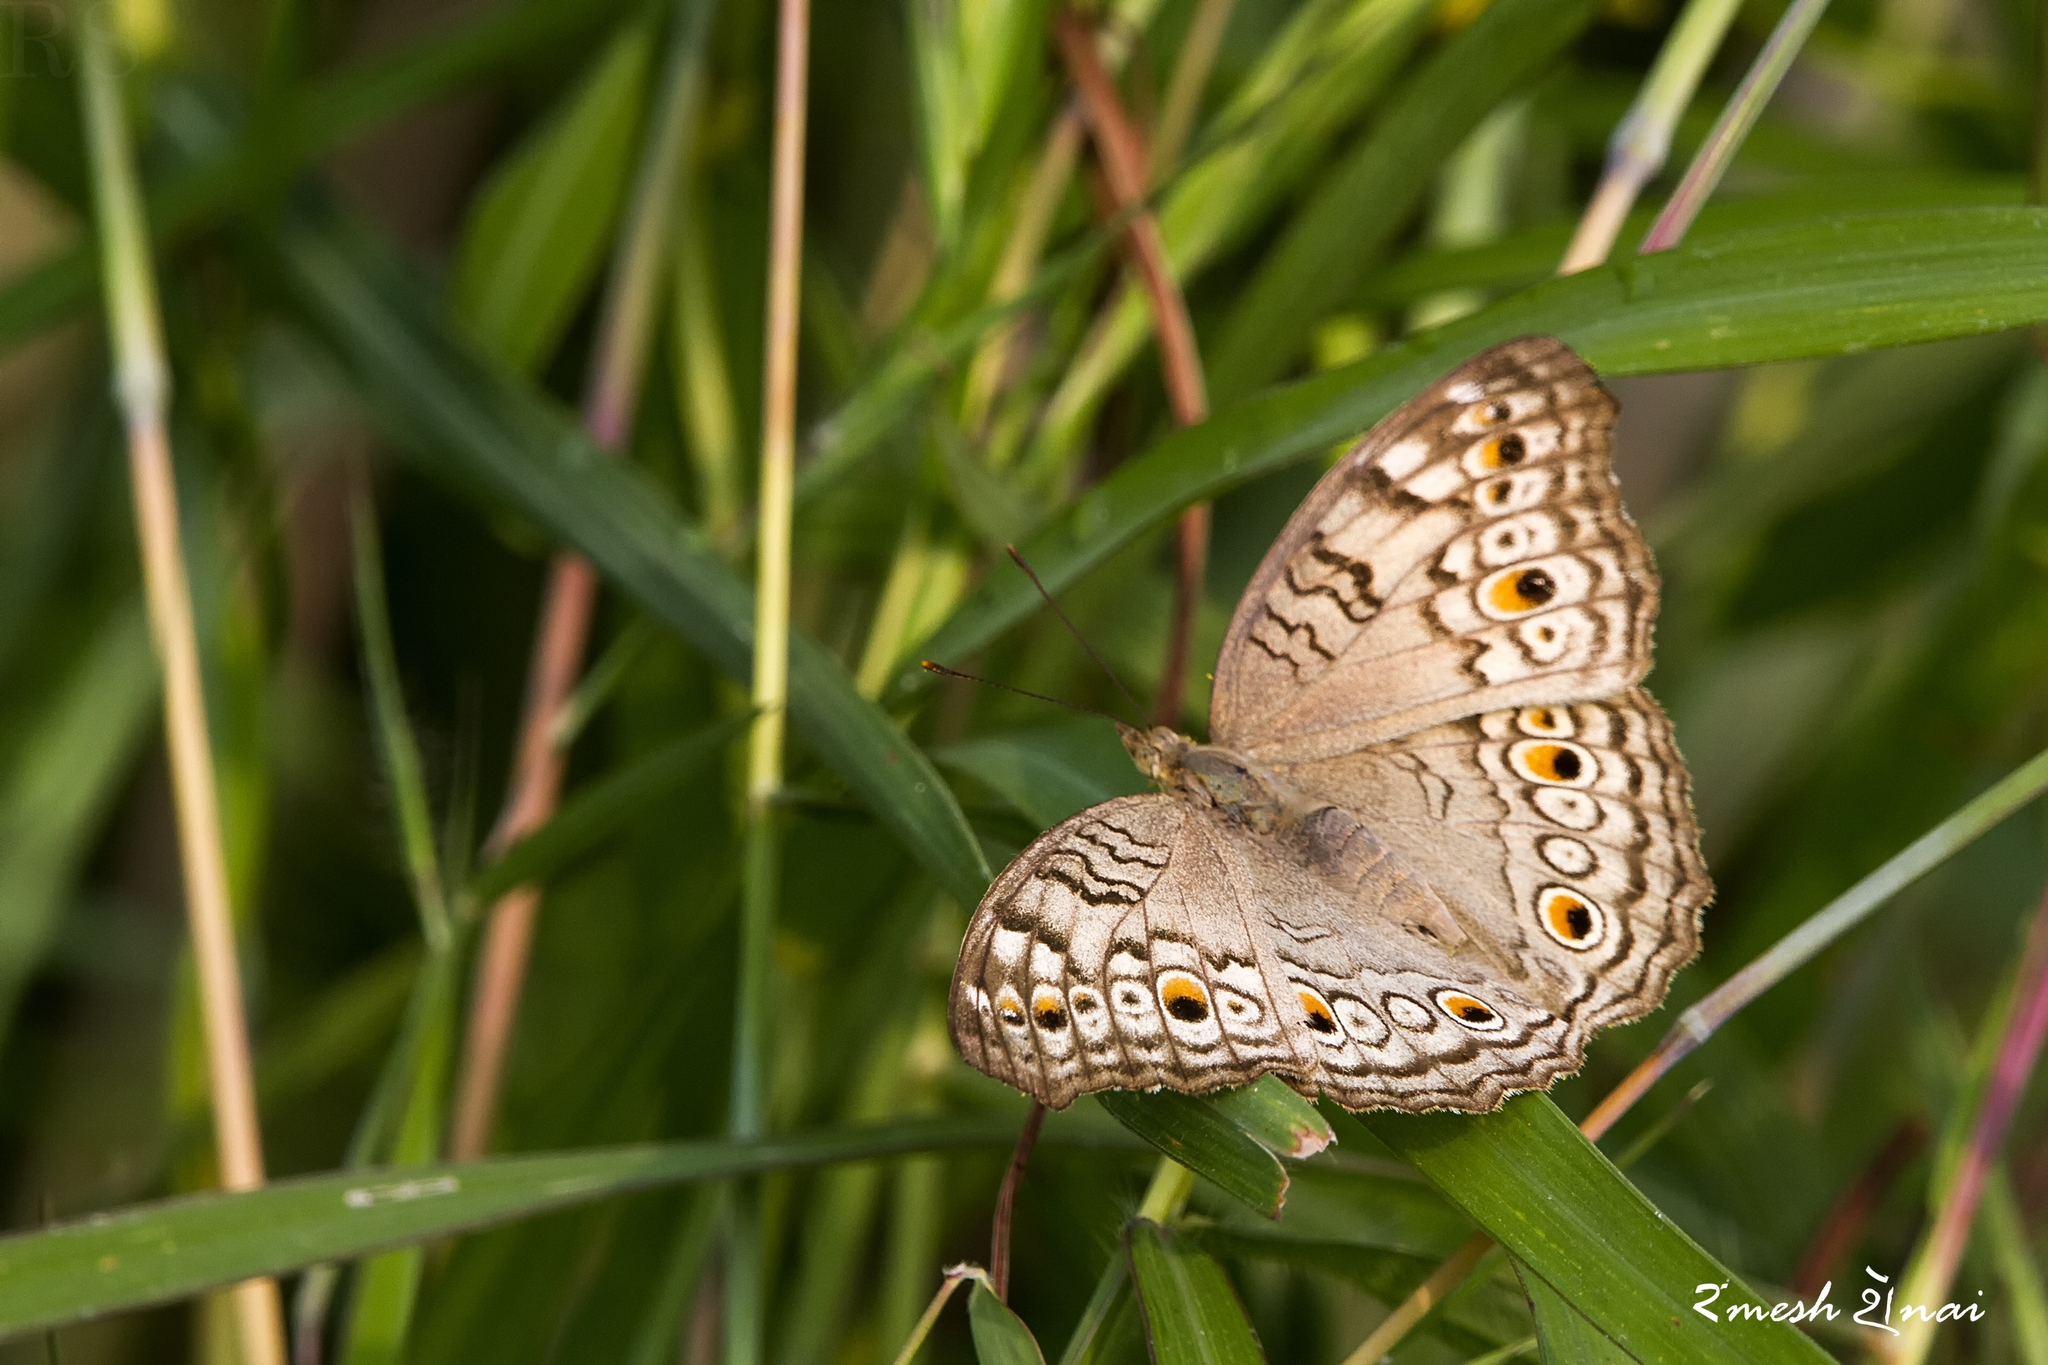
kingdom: Animalia
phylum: Arthropoda
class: Insecta
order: Lepidoptera
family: Nymphalidae
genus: Junonia
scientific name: Junonia atlites
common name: Grey pansy
